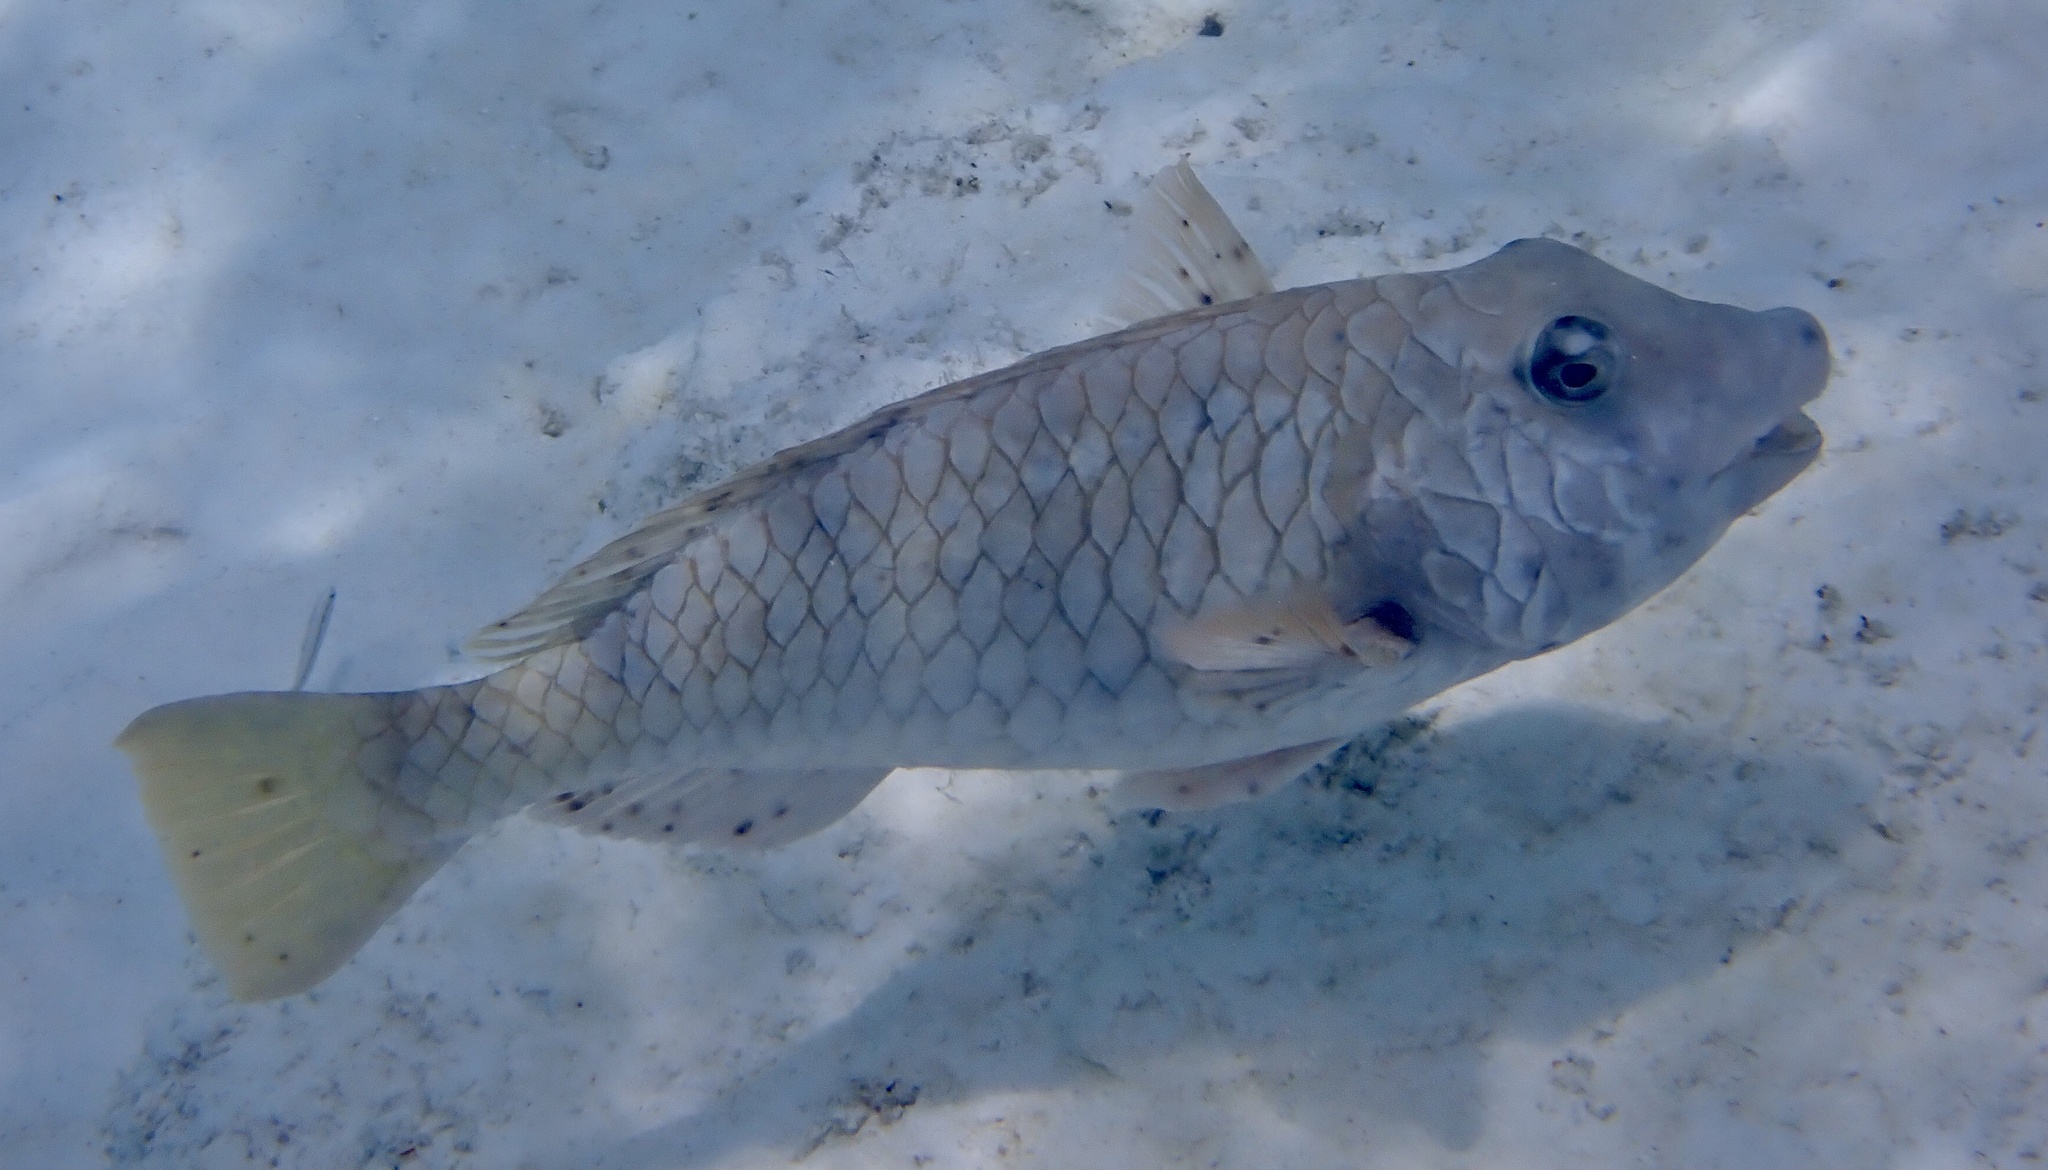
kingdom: Animalia
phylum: Chordata
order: Perciformes
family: Scaridae
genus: Sparisoma
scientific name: Sparisoma rubripinne
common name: Redfin parrotfish
